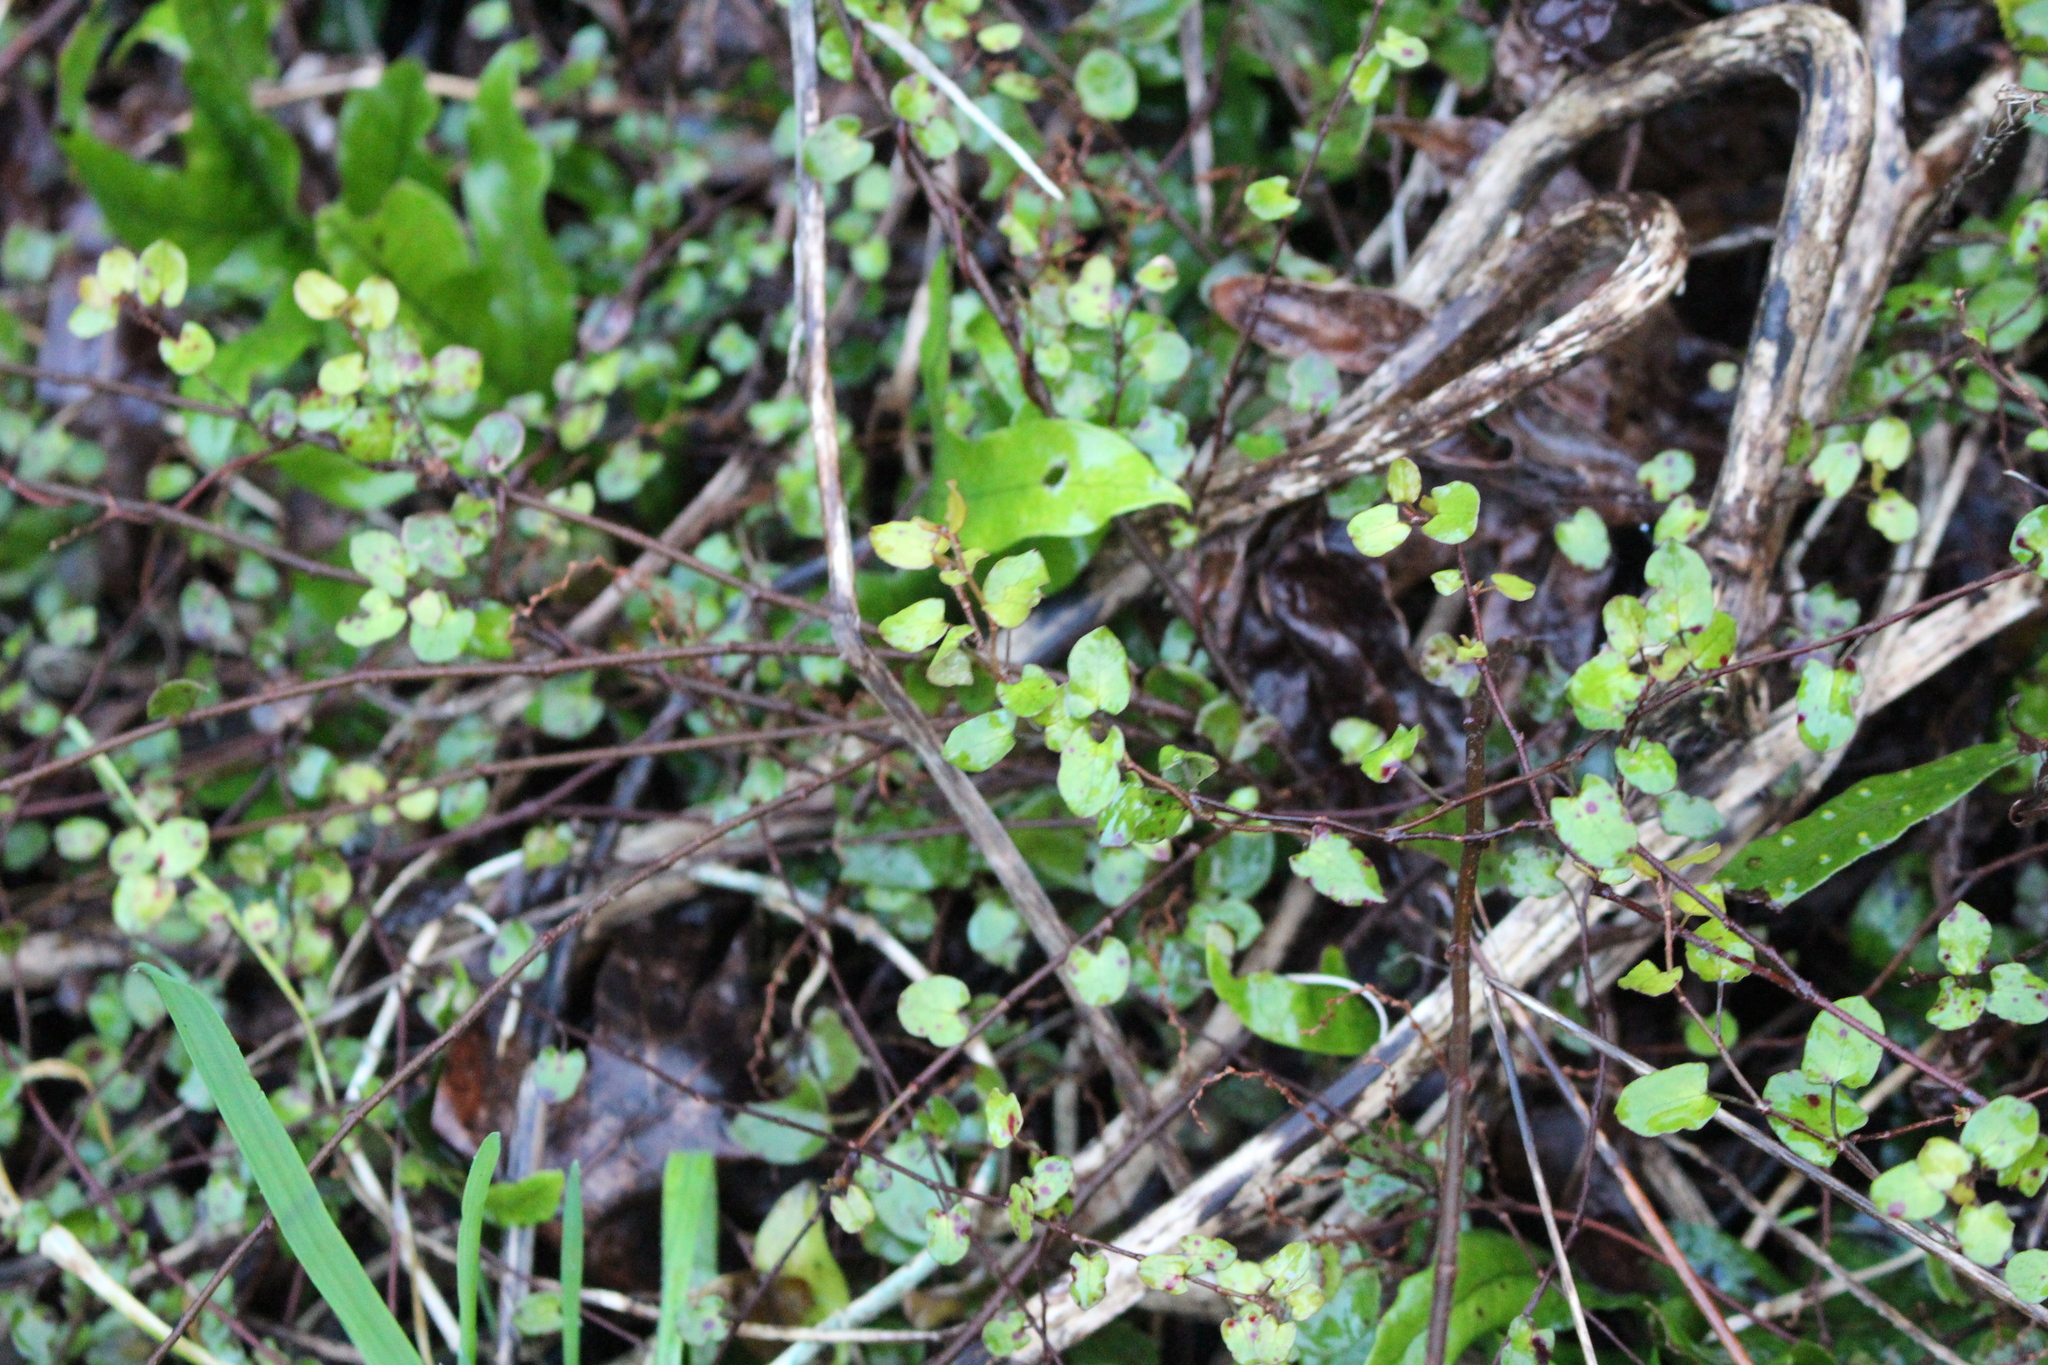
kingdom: Plantae
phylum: Tracheophyta
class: Magnoliopsida
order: Caryophyllales
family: Polygonaceae
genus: Muehlenbeckia
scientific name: Muehlenbeckia complexa
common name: Wireplant
